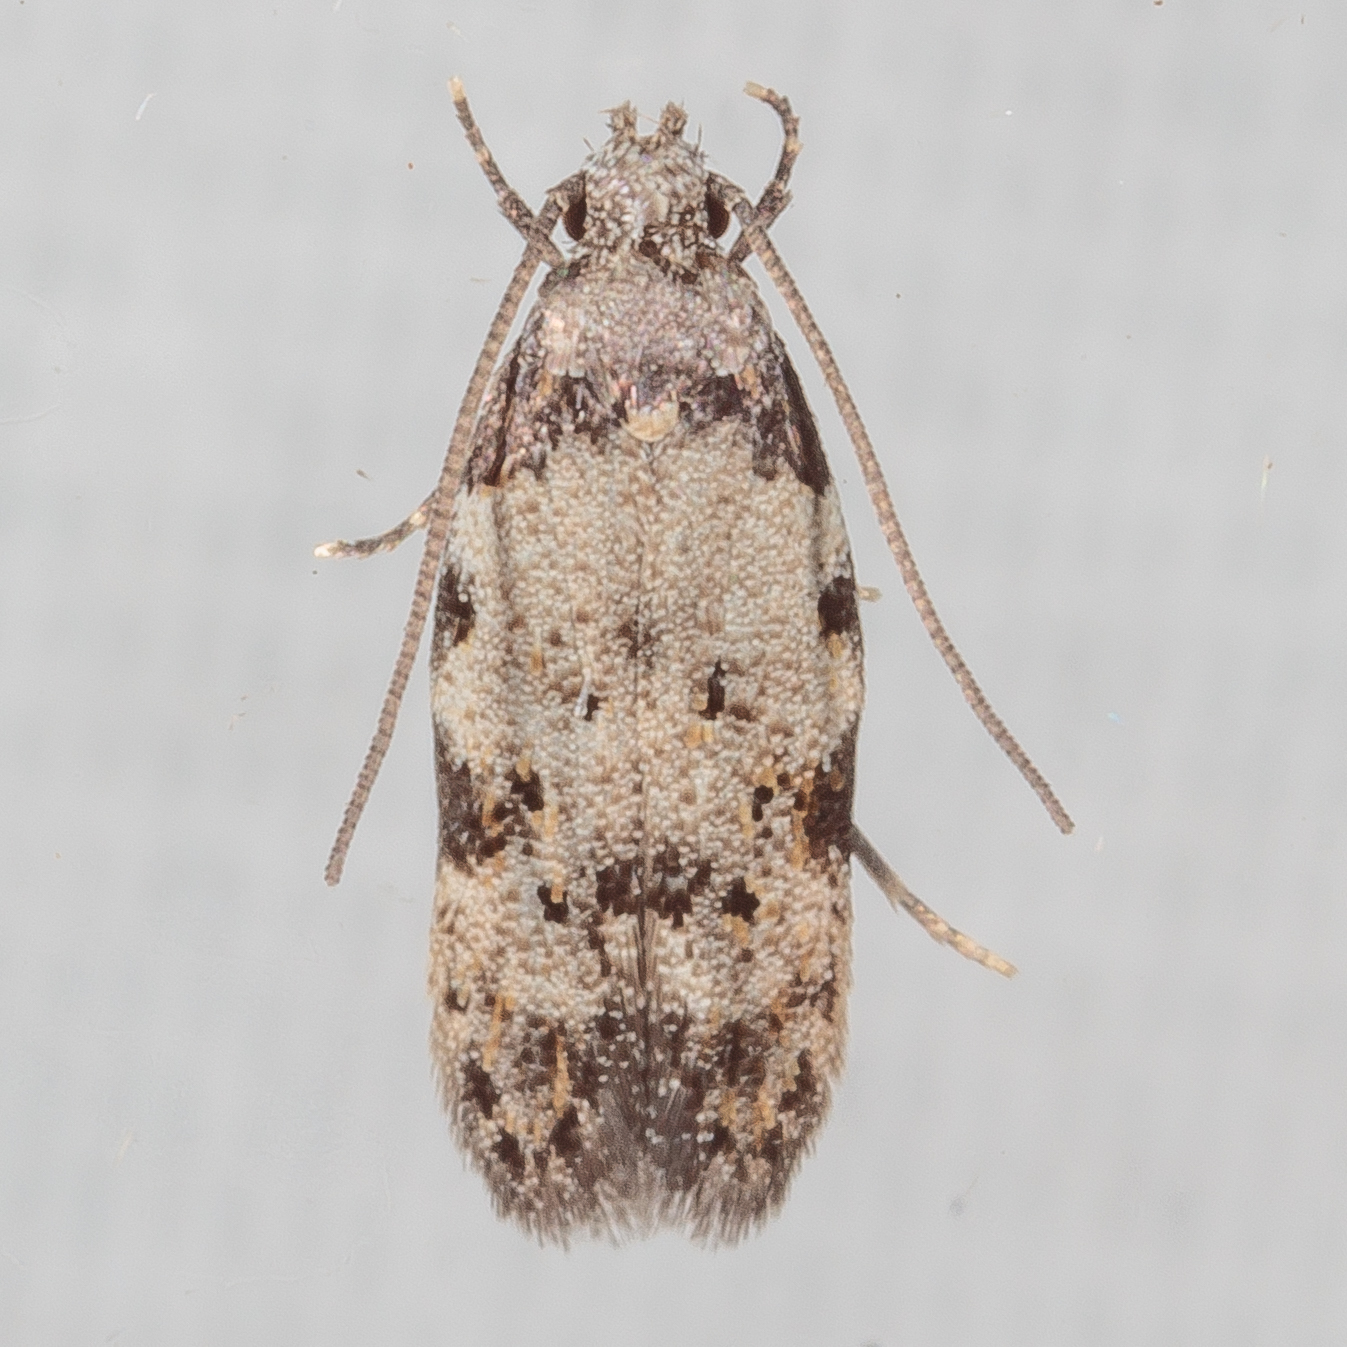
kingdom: Animalia
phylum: Arthropoda
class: Insecta
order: Lepidoptera
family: Autostichidae
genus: Taygete
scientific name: Taygete attributella
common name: Triangle-marked twirler moth
